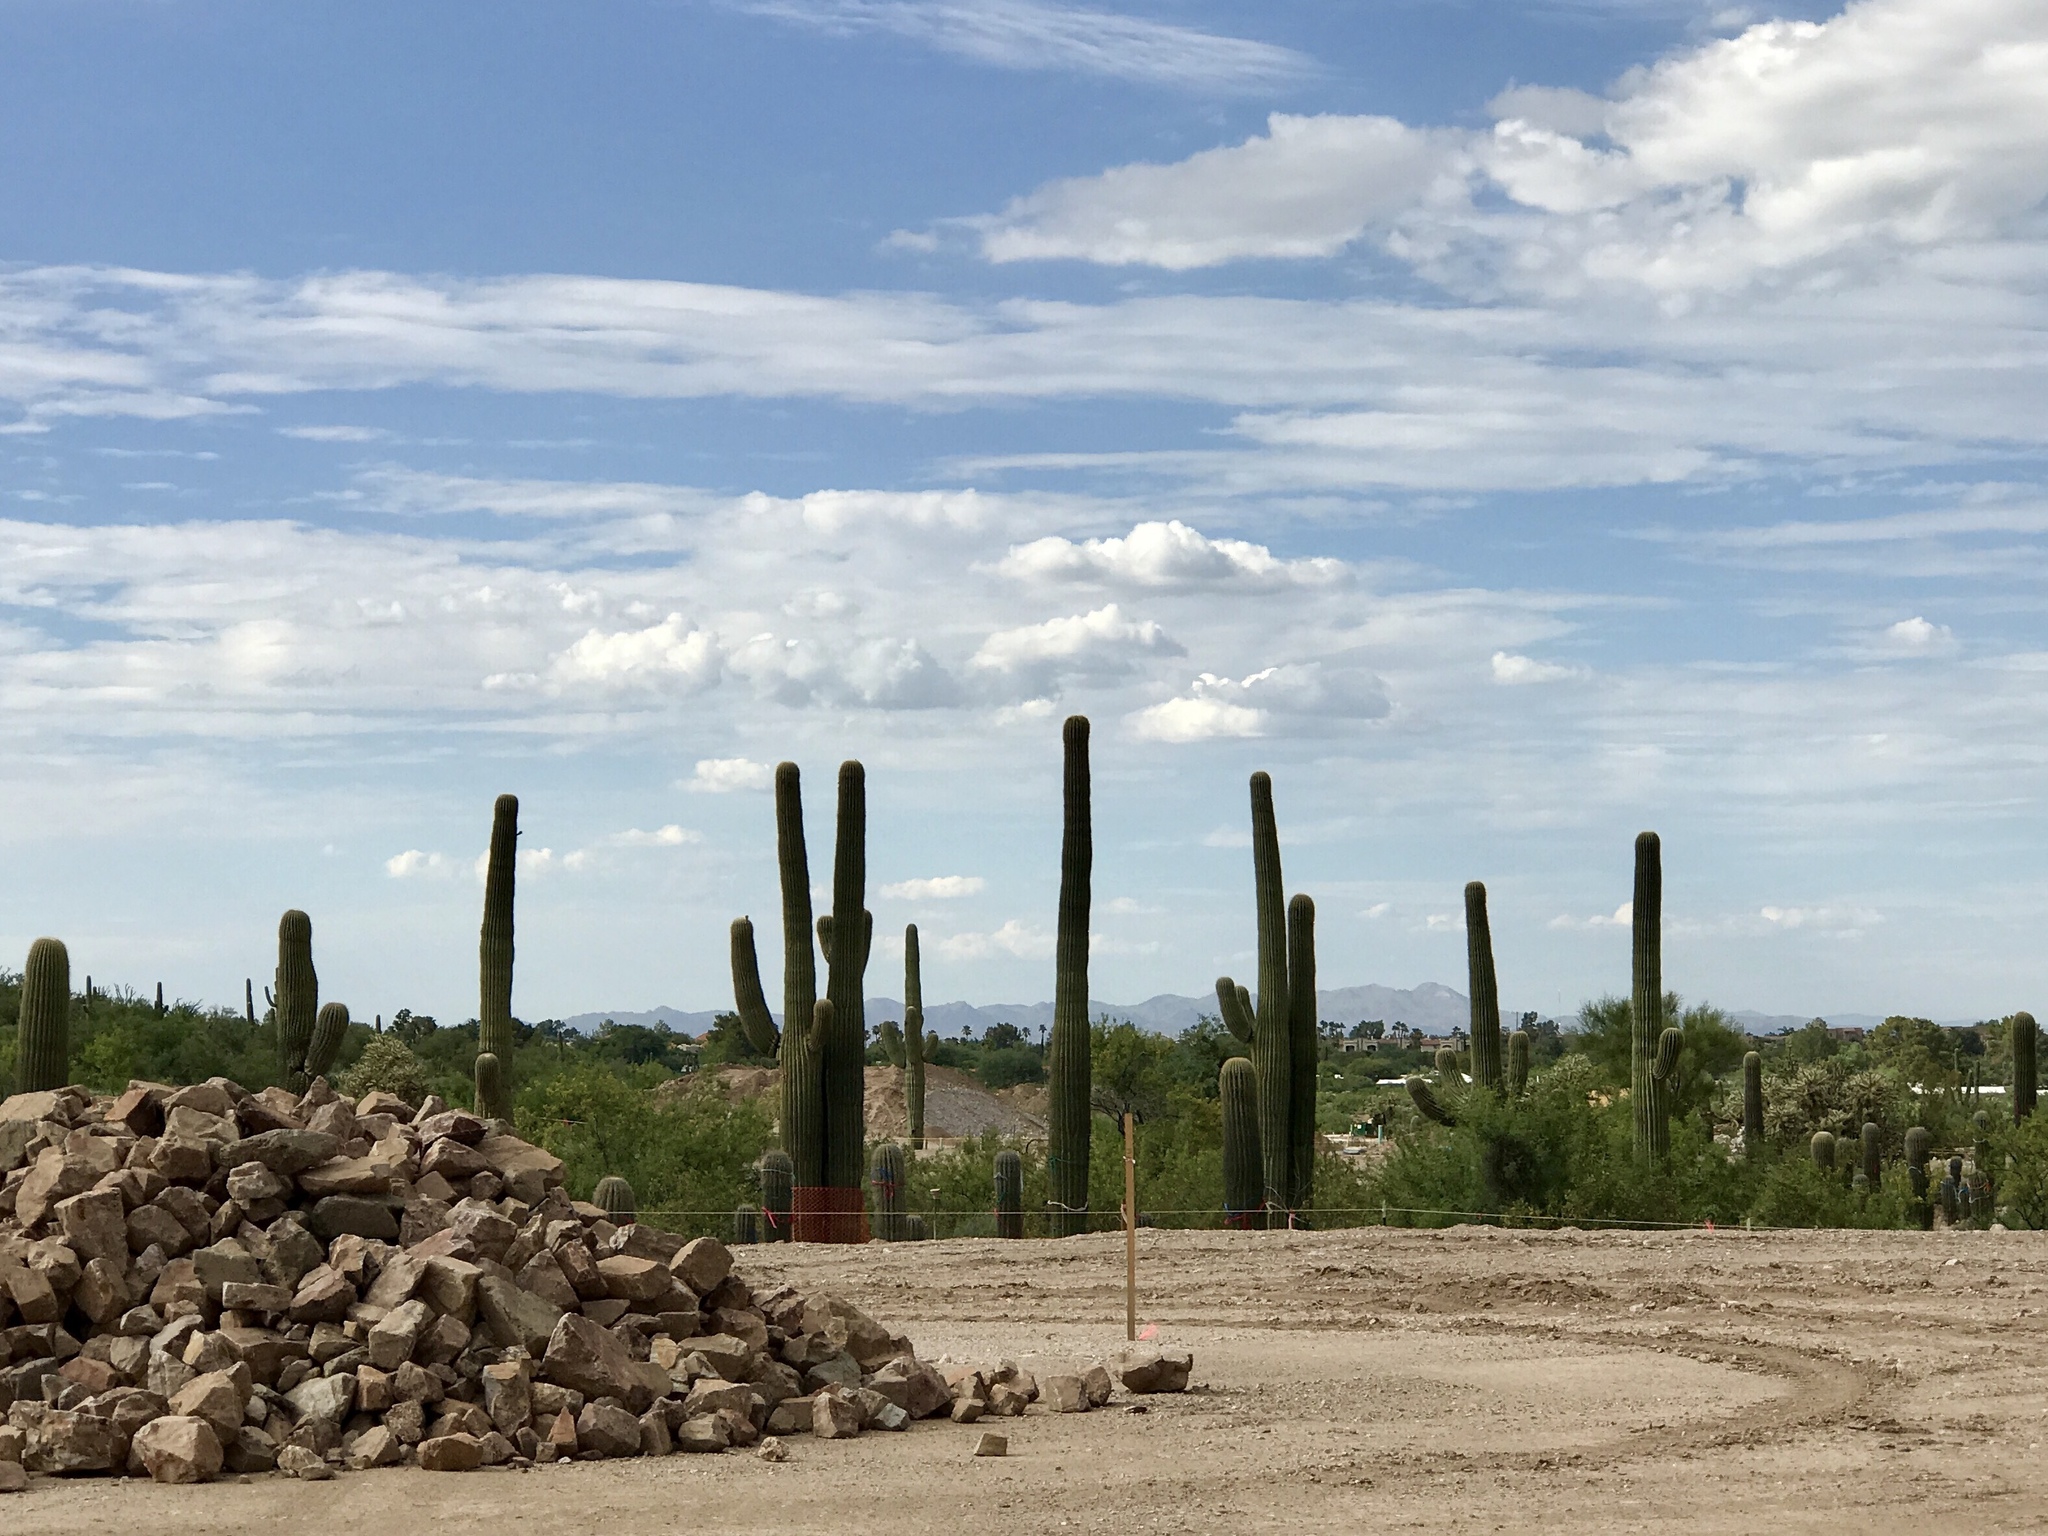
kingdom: Plantae
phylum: Tracheophyta
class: Magnoliopsida
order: Caryophyllales
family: Cactaceae
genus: Carnegiea
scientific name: Carnegiea gigantea
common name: Saguaro
